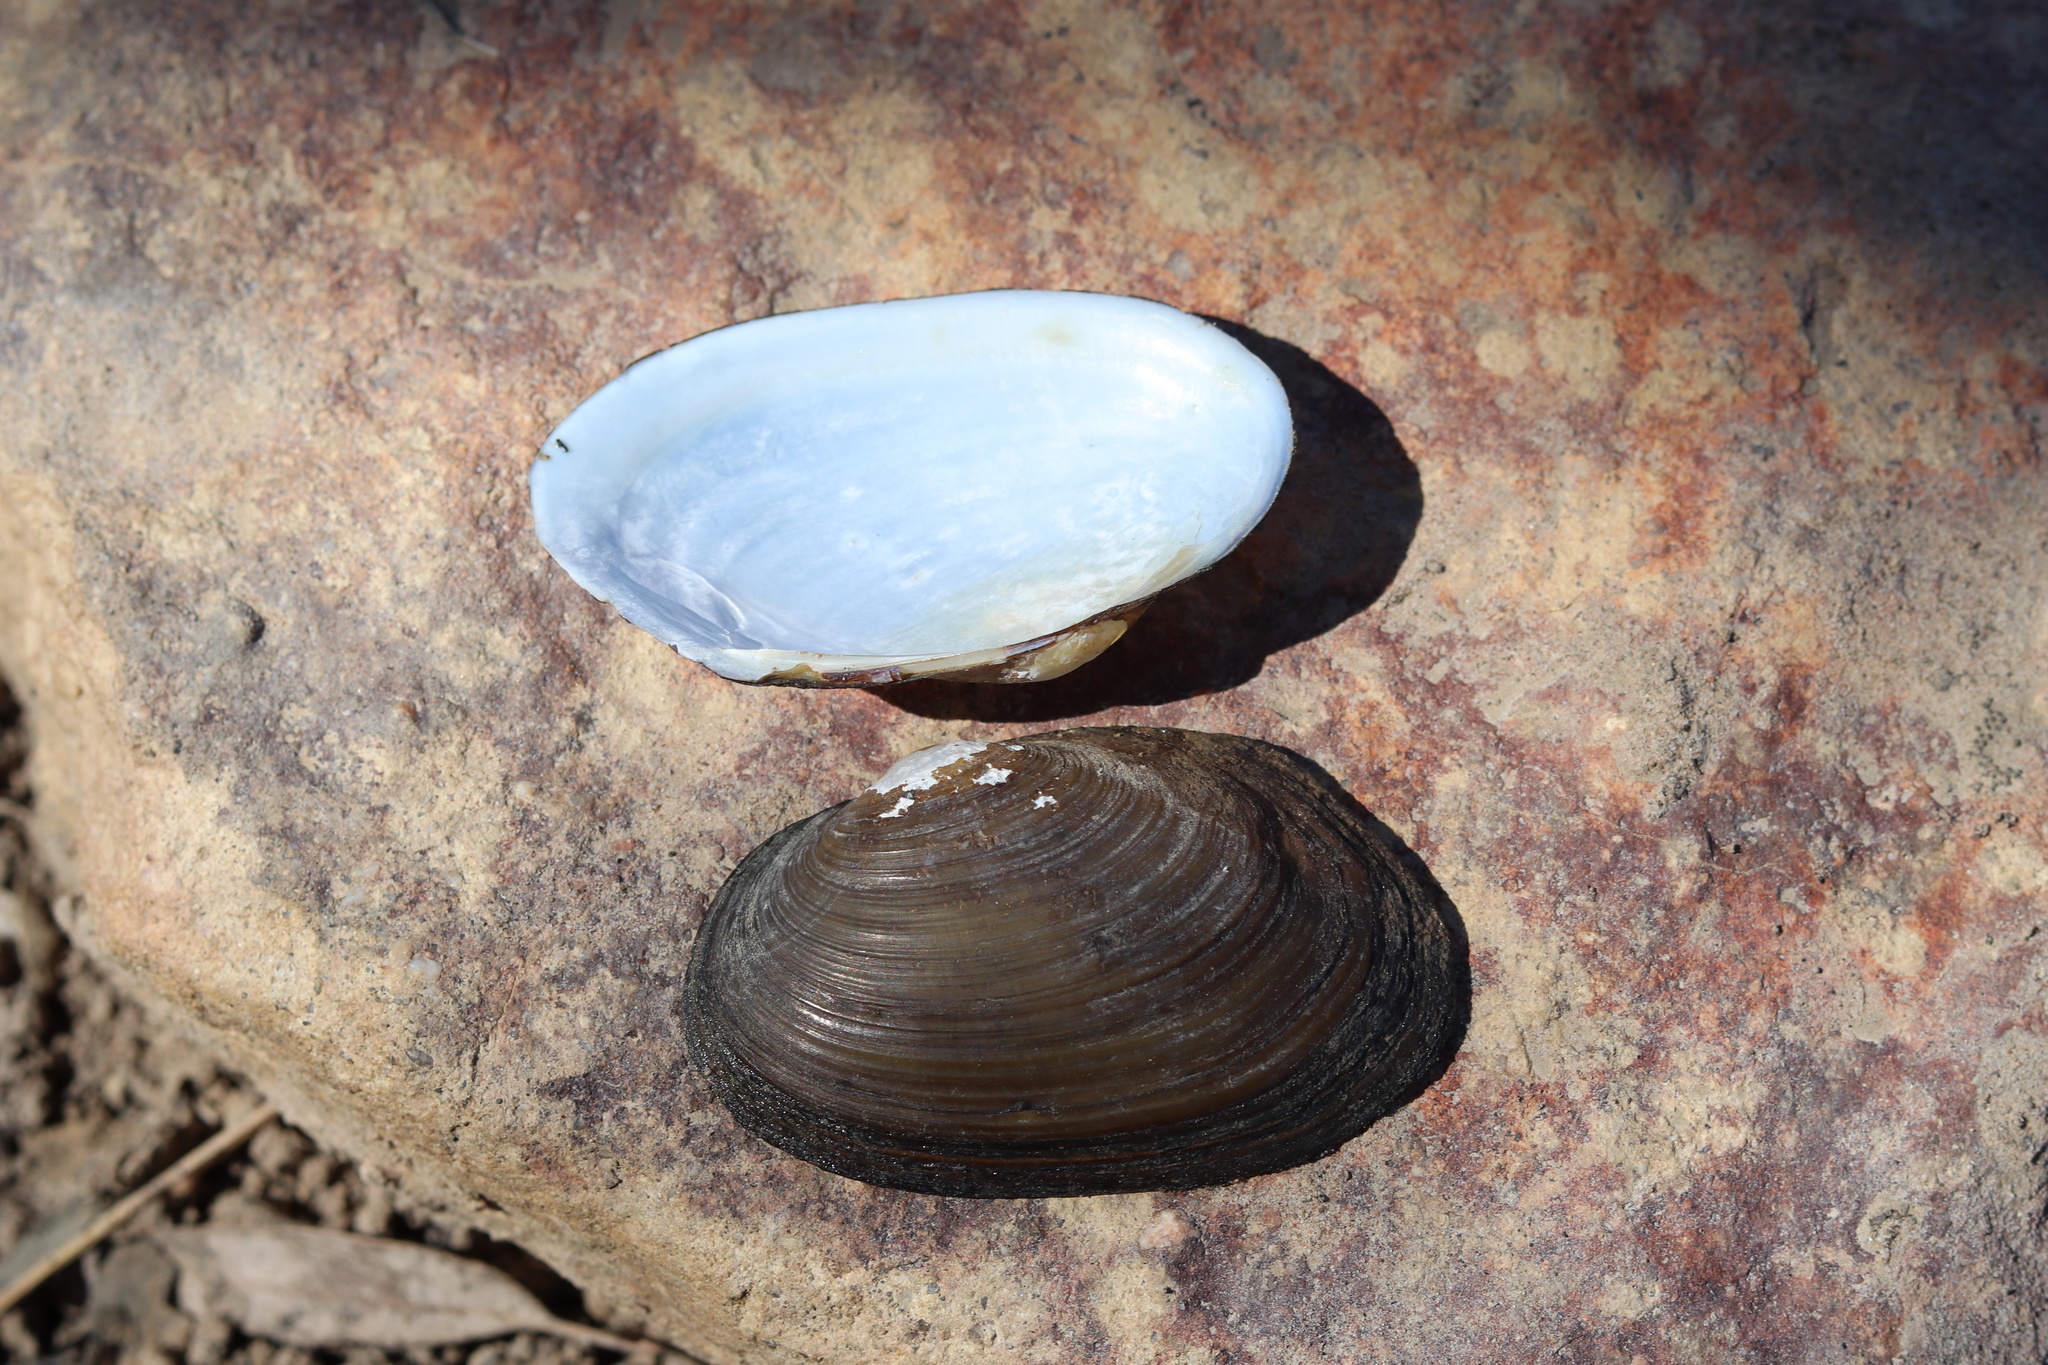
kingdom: Animalia
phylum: Mollusca
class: Bivalvia
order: Unionida
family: Hyriidae
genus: Velesunio
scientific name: Velesunio ambiguus
